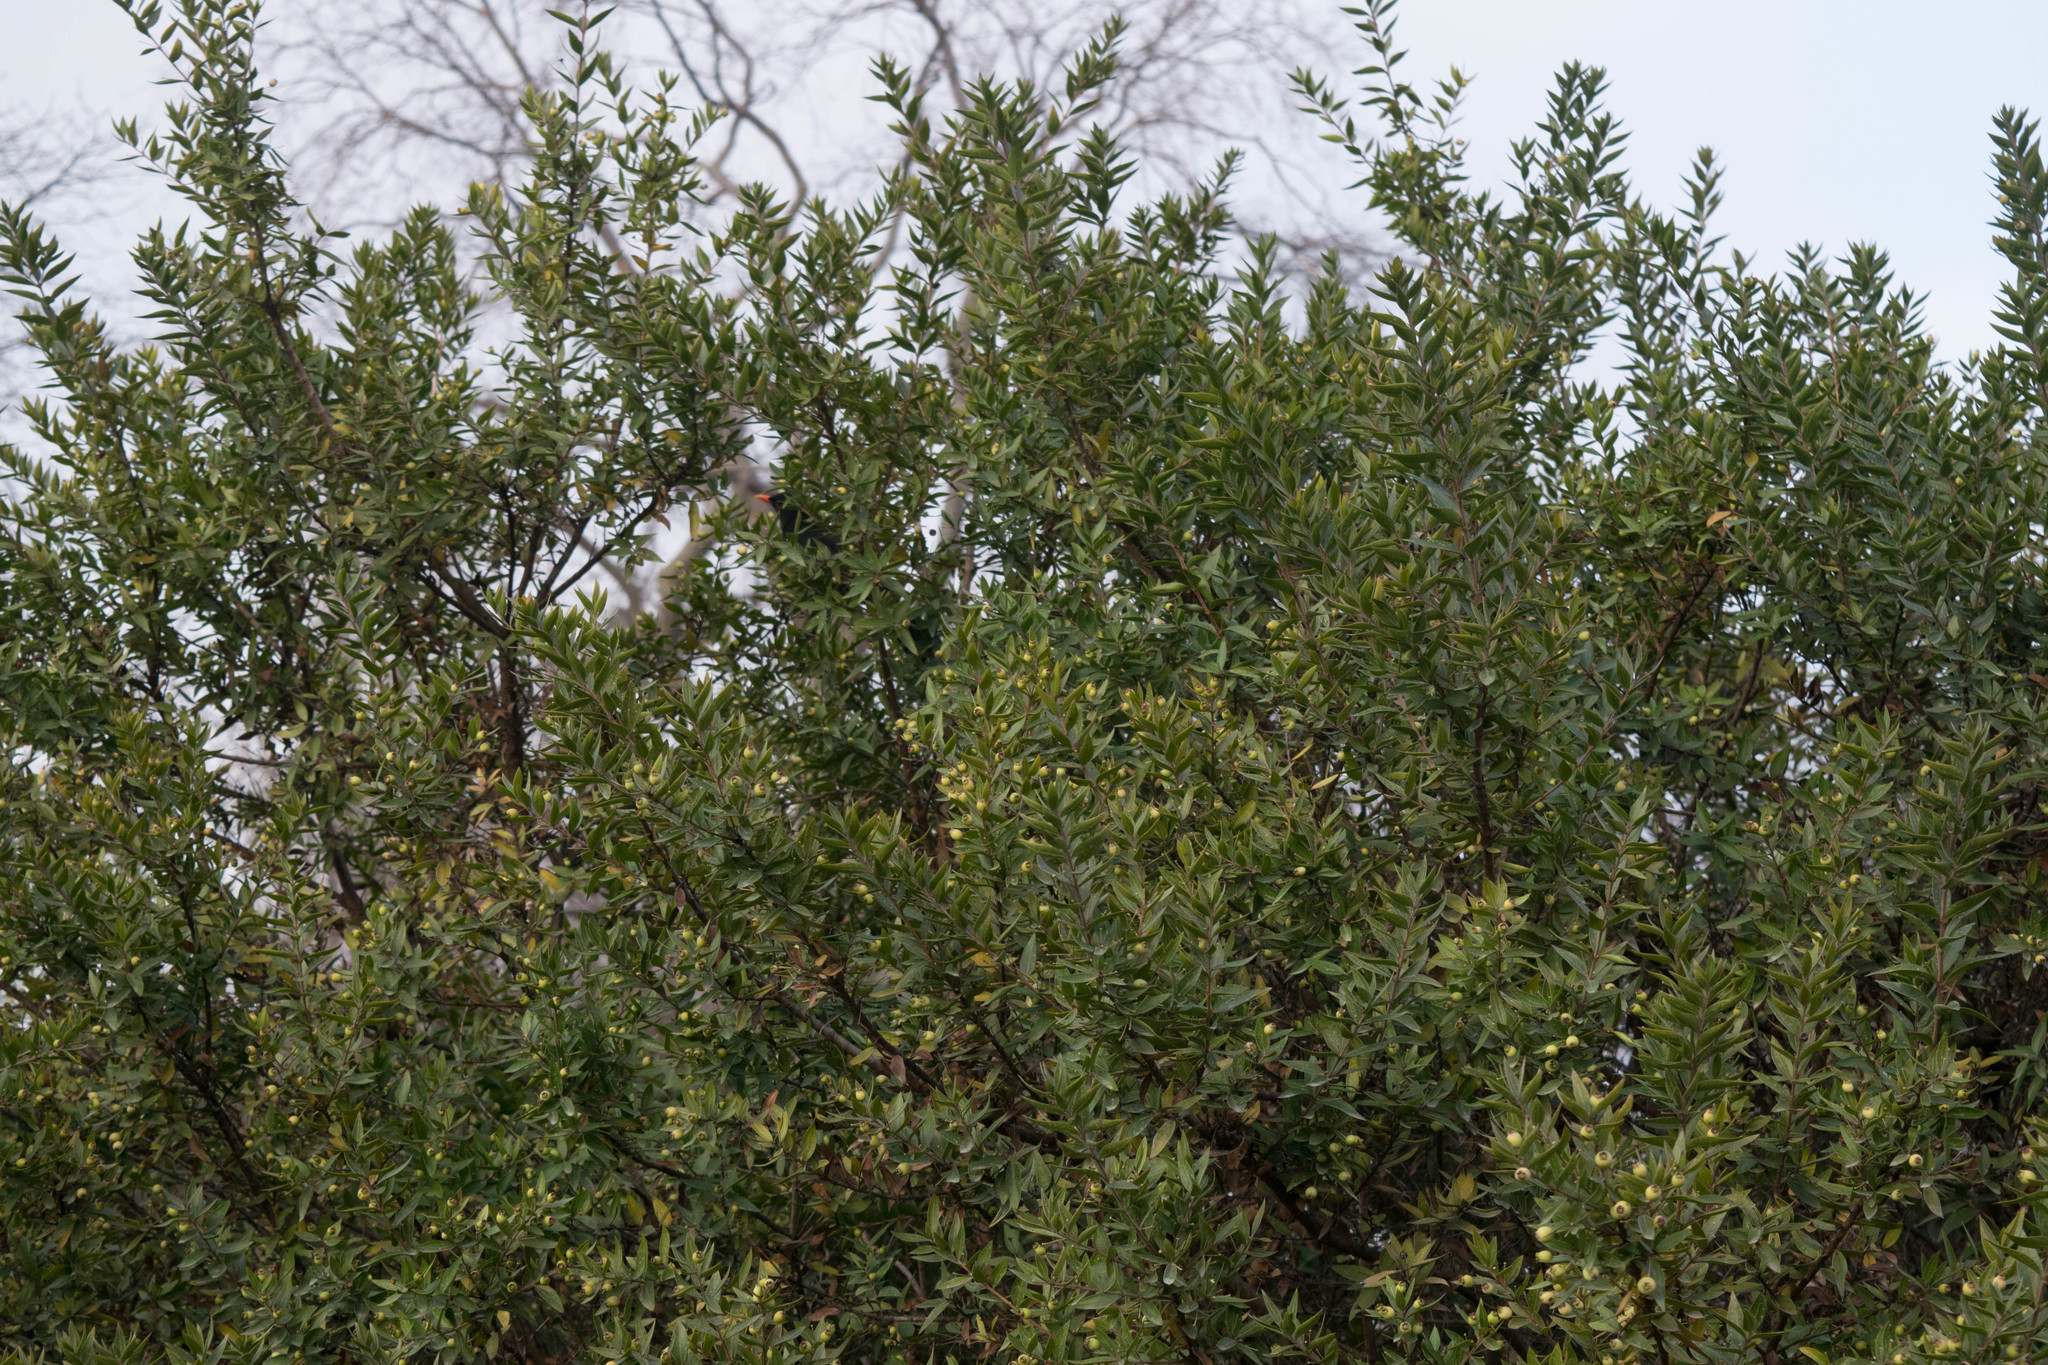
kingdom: Animalia
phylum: Chordata
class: Aves
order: Passeriformes
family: Turdidae
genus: Turdus
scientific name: Turdus merula
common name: Common blackbird
